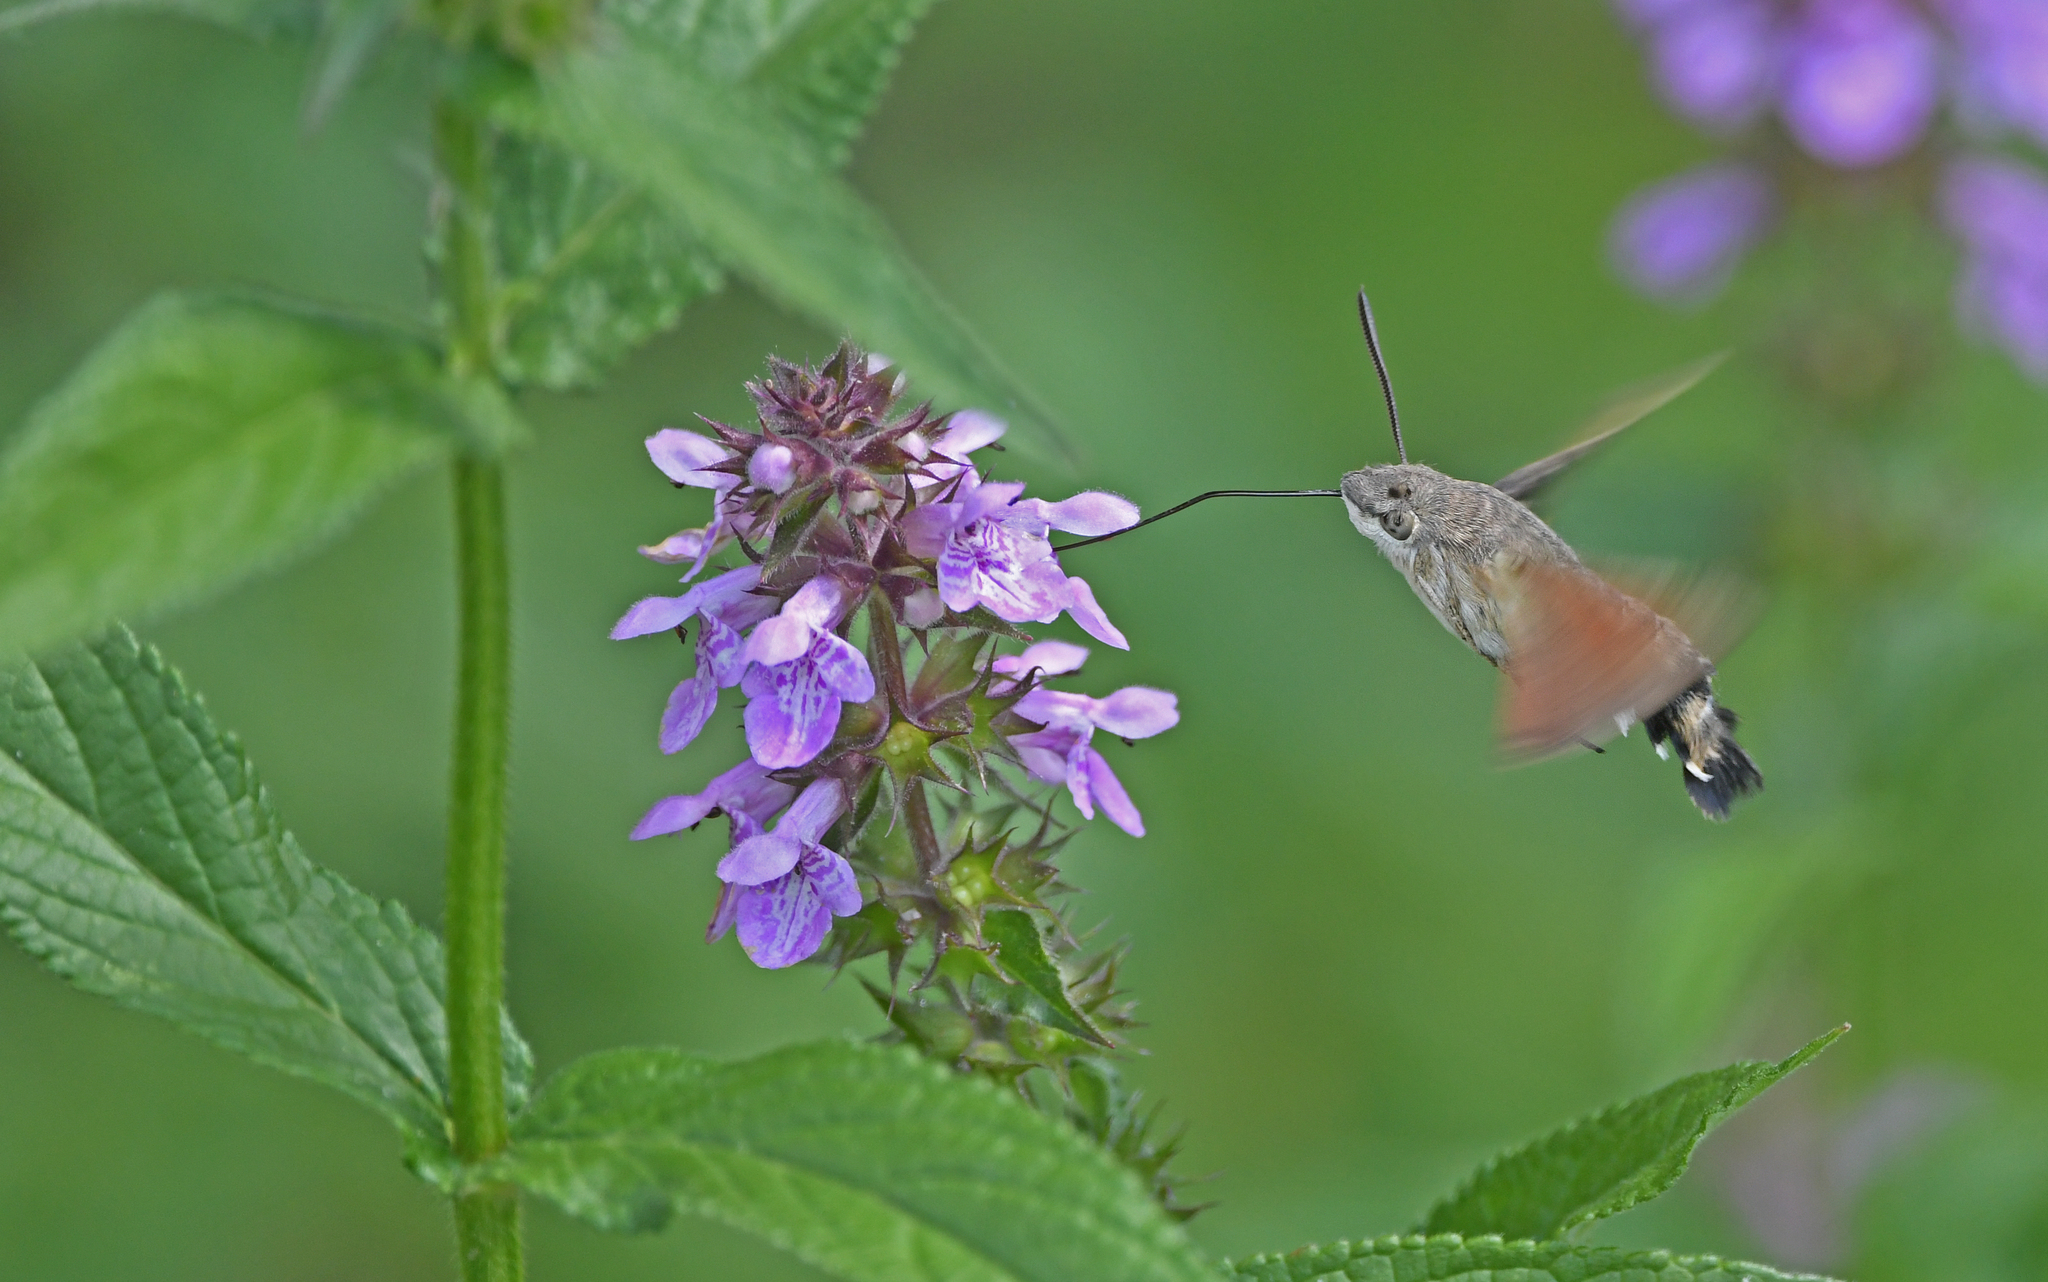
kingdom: Animalia
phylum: Arthropoda
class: Insecta
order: Lepidoptera
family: Sphingidae
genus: Macroglossum
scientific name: Macroglossum stellatarum
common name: Humming-bird hawk-moth
